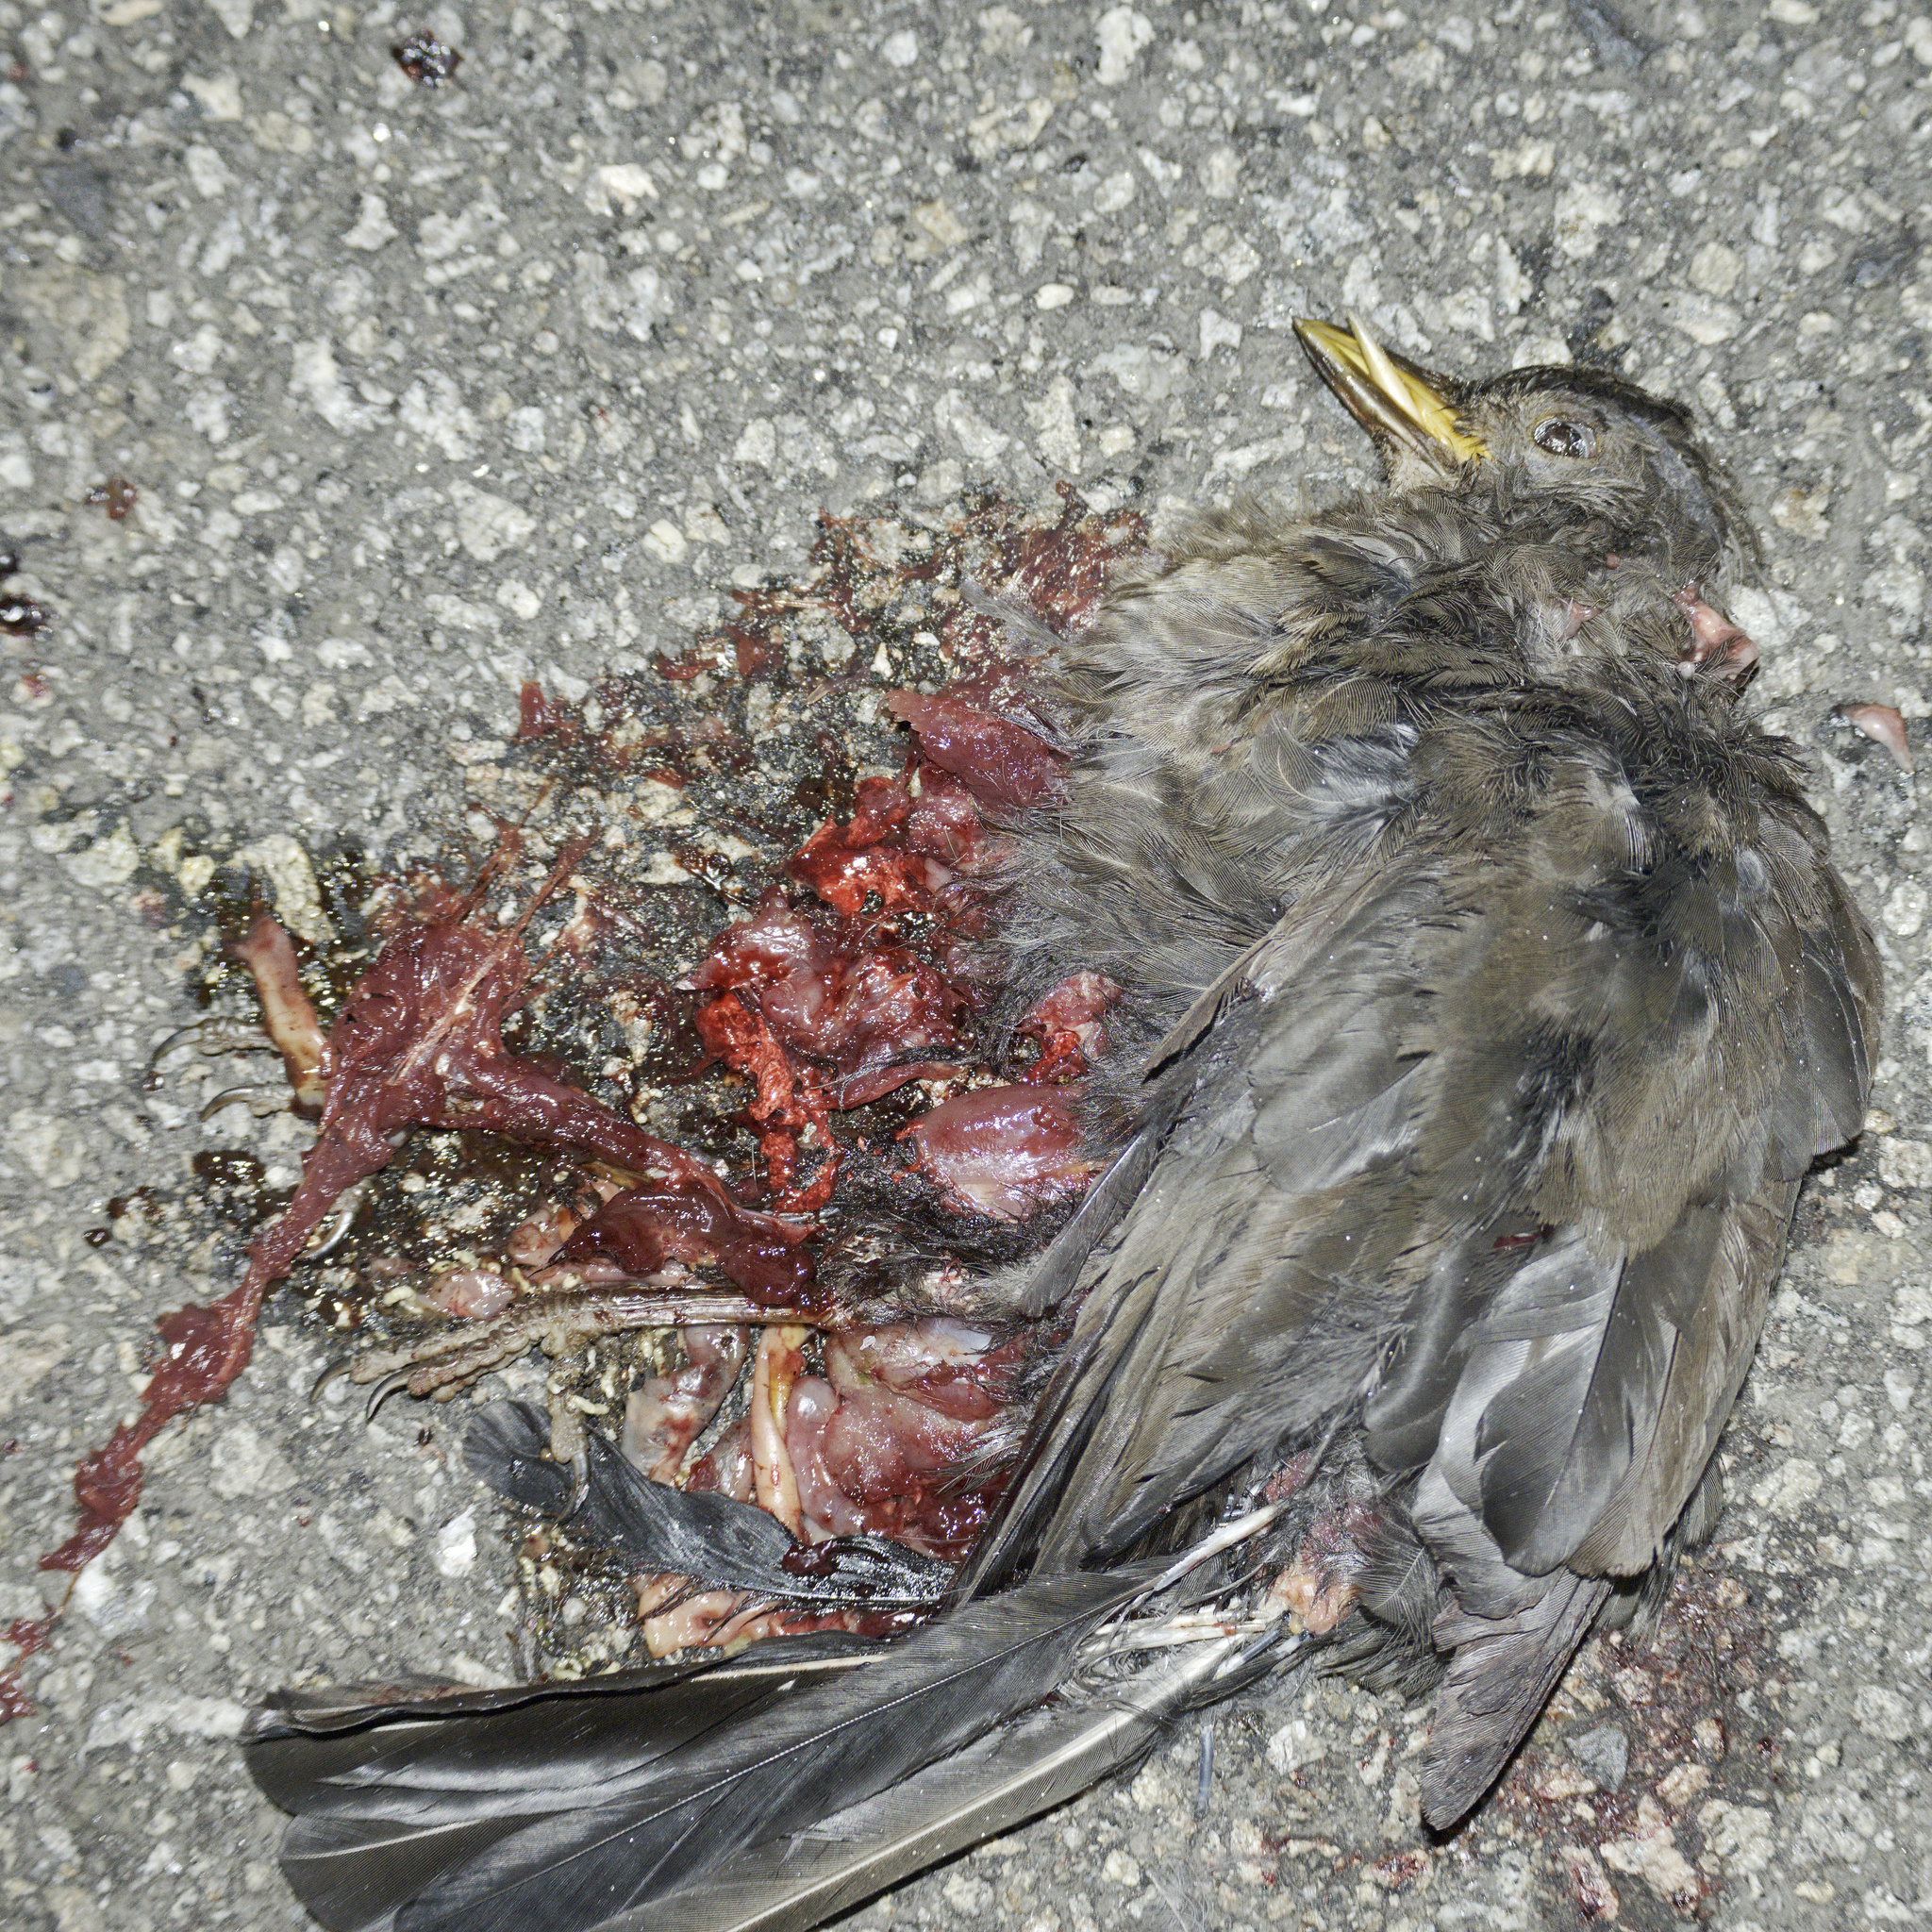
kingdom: Animalia
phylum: Chordata
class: Aves
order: Passeriformes
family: Turdidae
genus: Turdus
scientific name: Turdus merula
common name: Common blackbird
